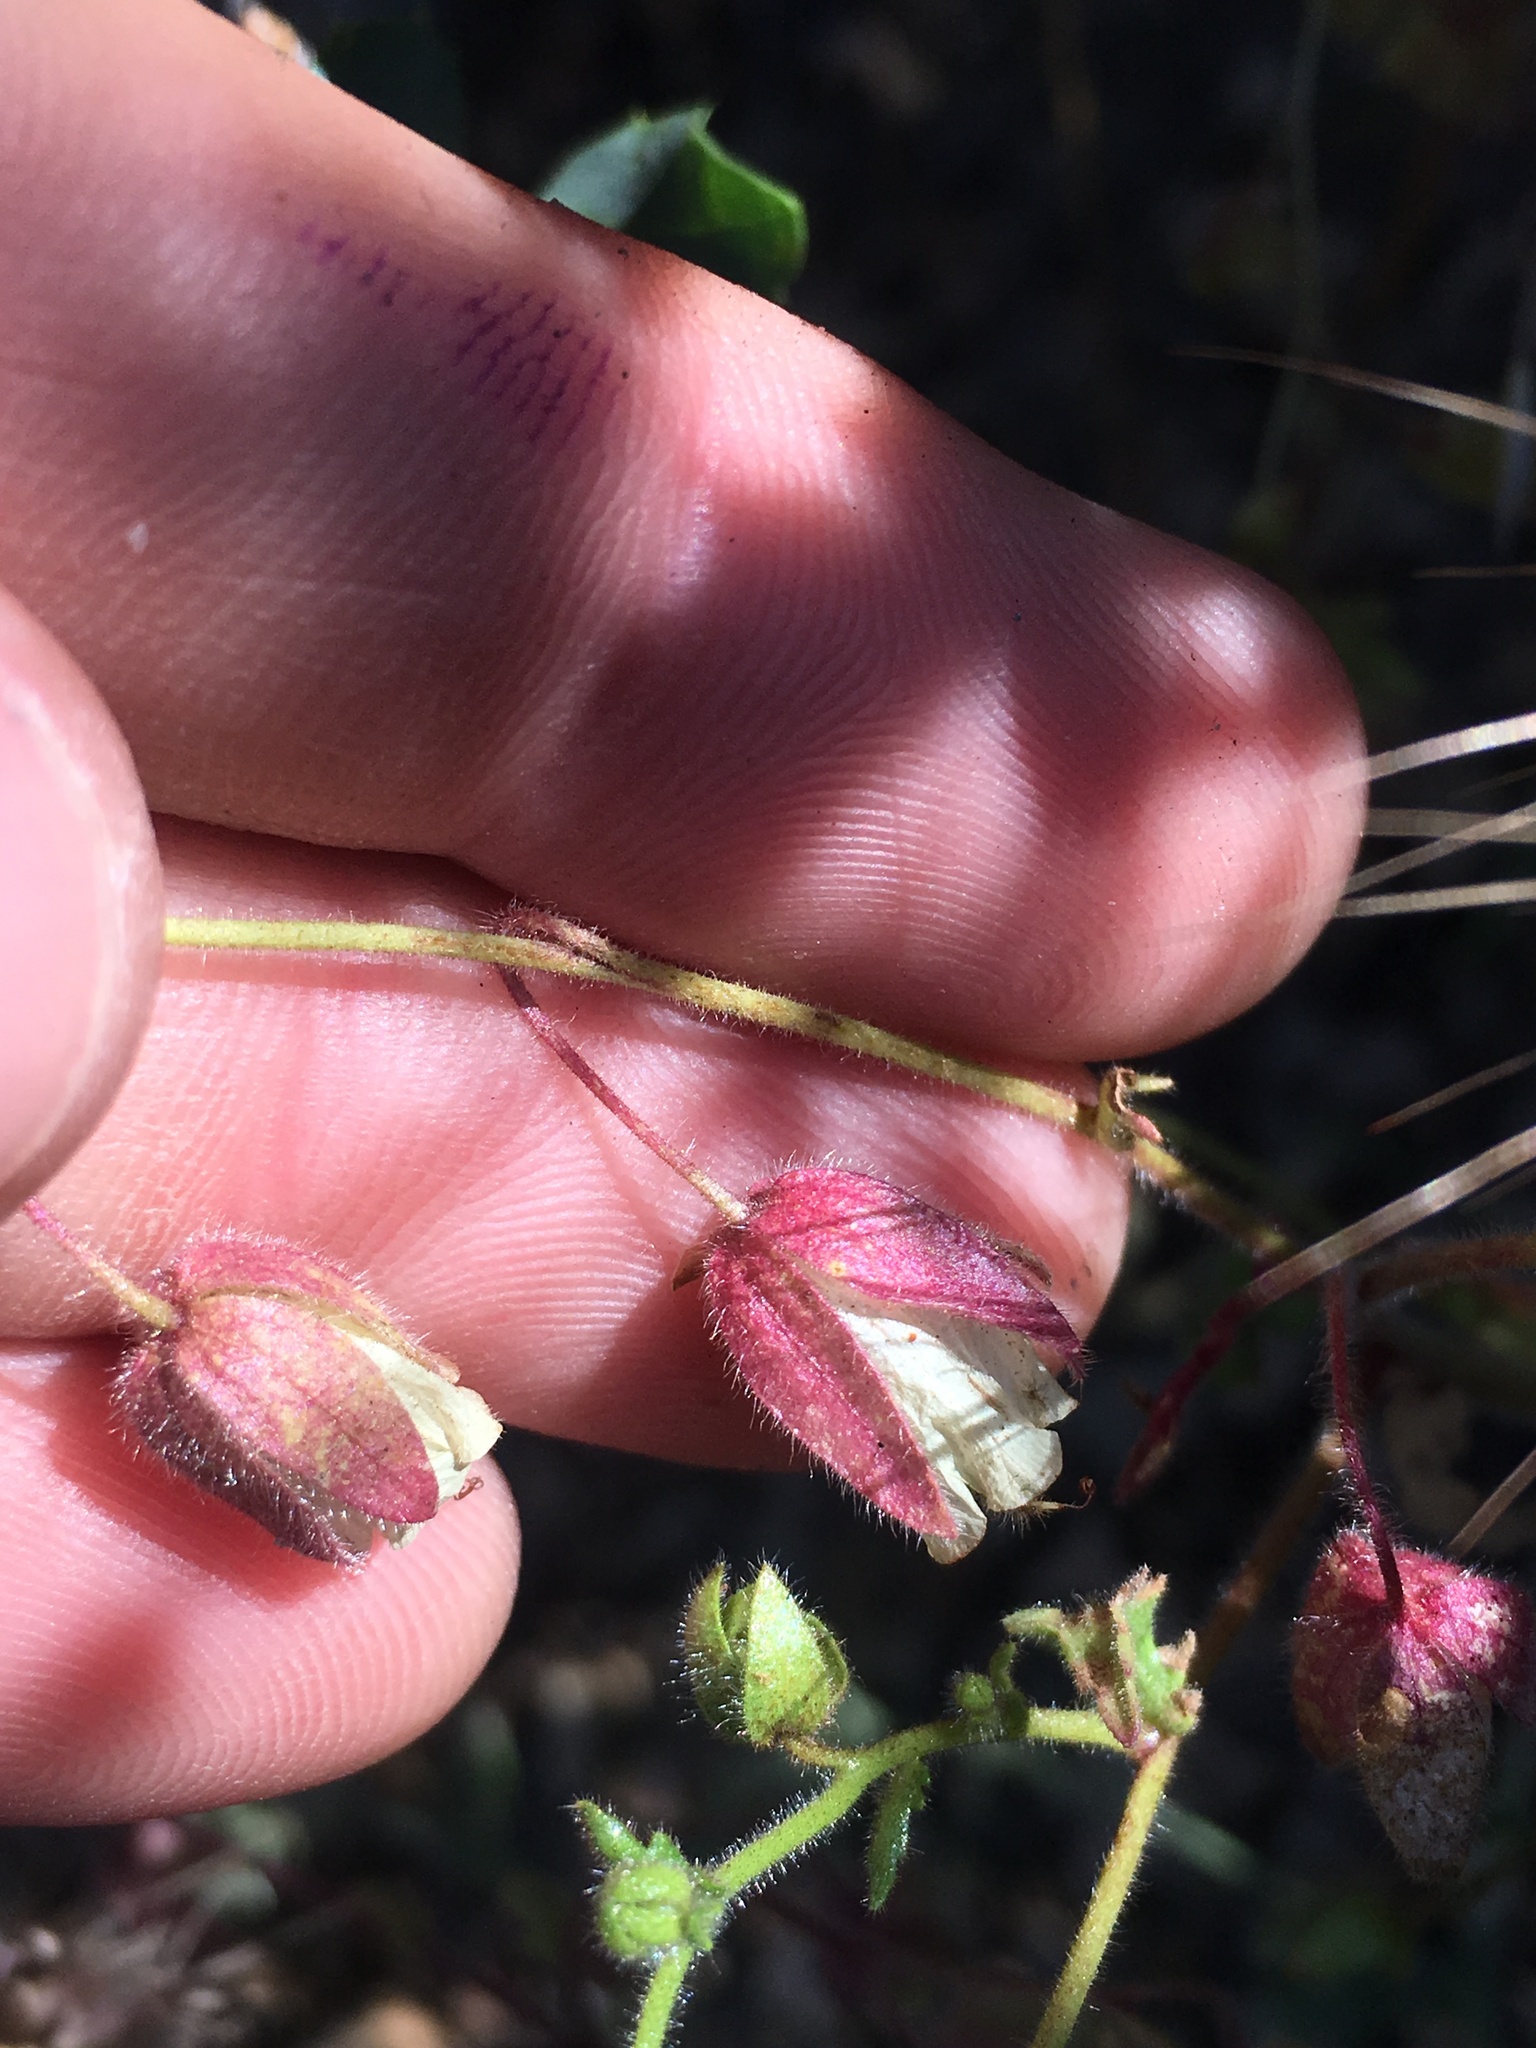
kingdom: Plantae
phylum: Tracheophyta
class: Magnoliopsida
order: Boraginales
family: Hydrophyllaceae
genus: Emmenanthe
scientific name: Emmenanthe penduliflora
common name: Whispering-bells
